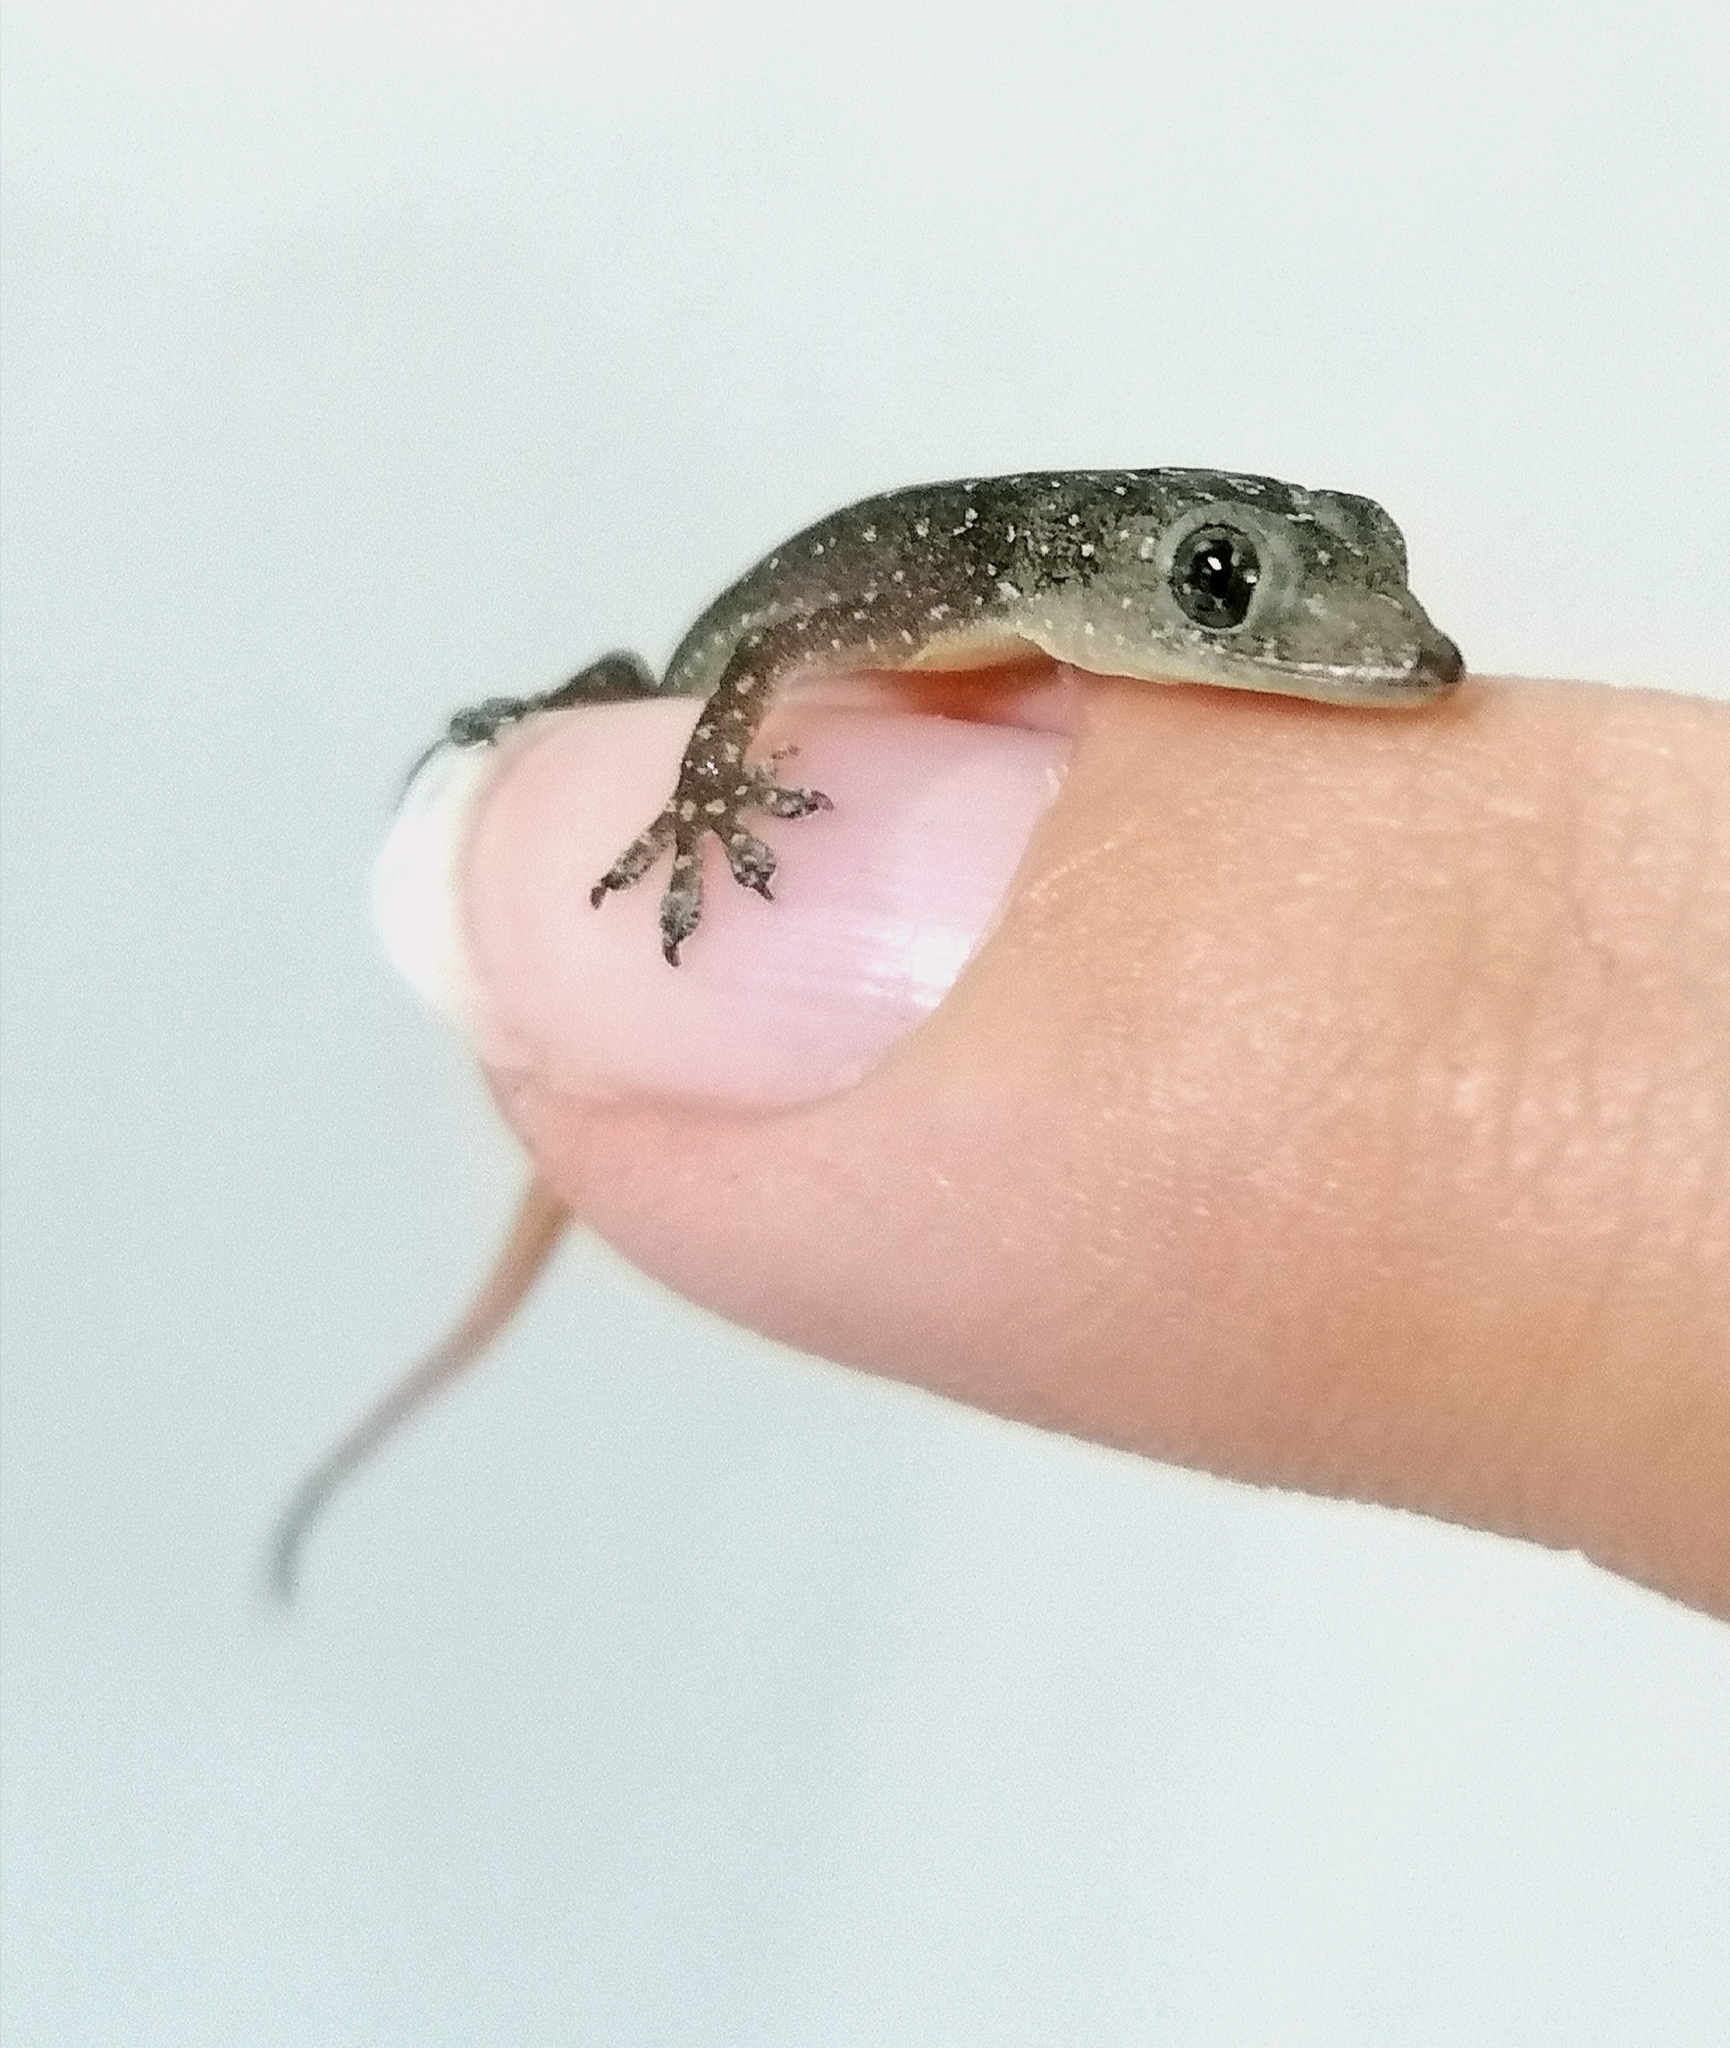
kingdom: Animalia
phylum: Chordata
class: Squamata
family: Gekkonidae
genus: Hemidactylus
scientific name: Hemidactylus frenatus
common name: Common house gecko
